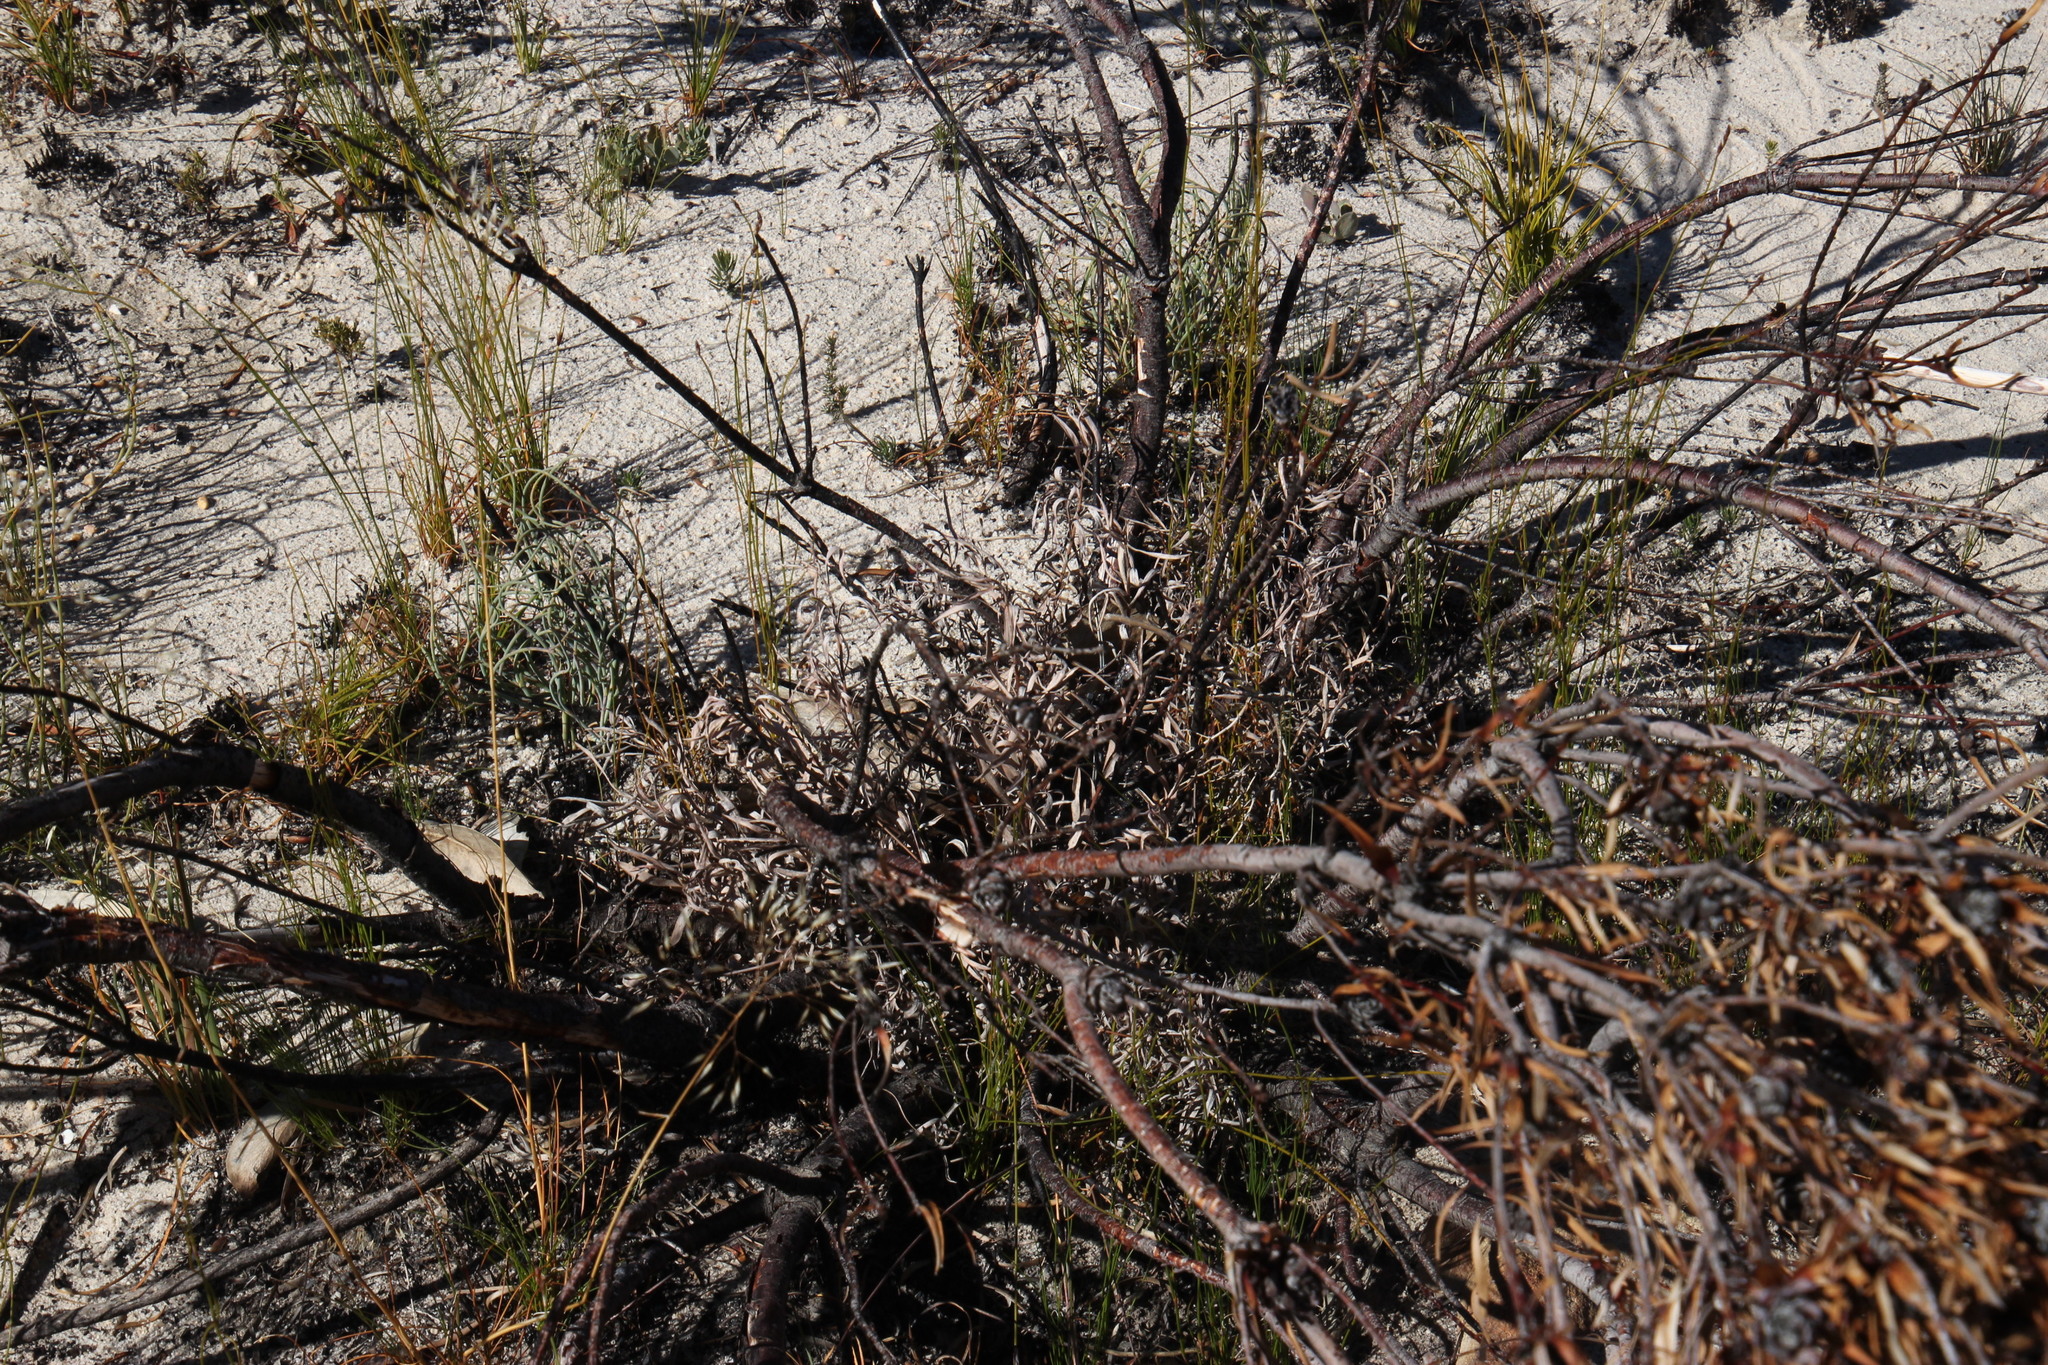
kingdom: Plantae
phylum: Tracheophyta
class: Magnoliopsida
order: Proteales
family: Proteaceae
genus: Leucadendron
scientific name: Leucadendron salignum
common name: Common sunshine conebush
